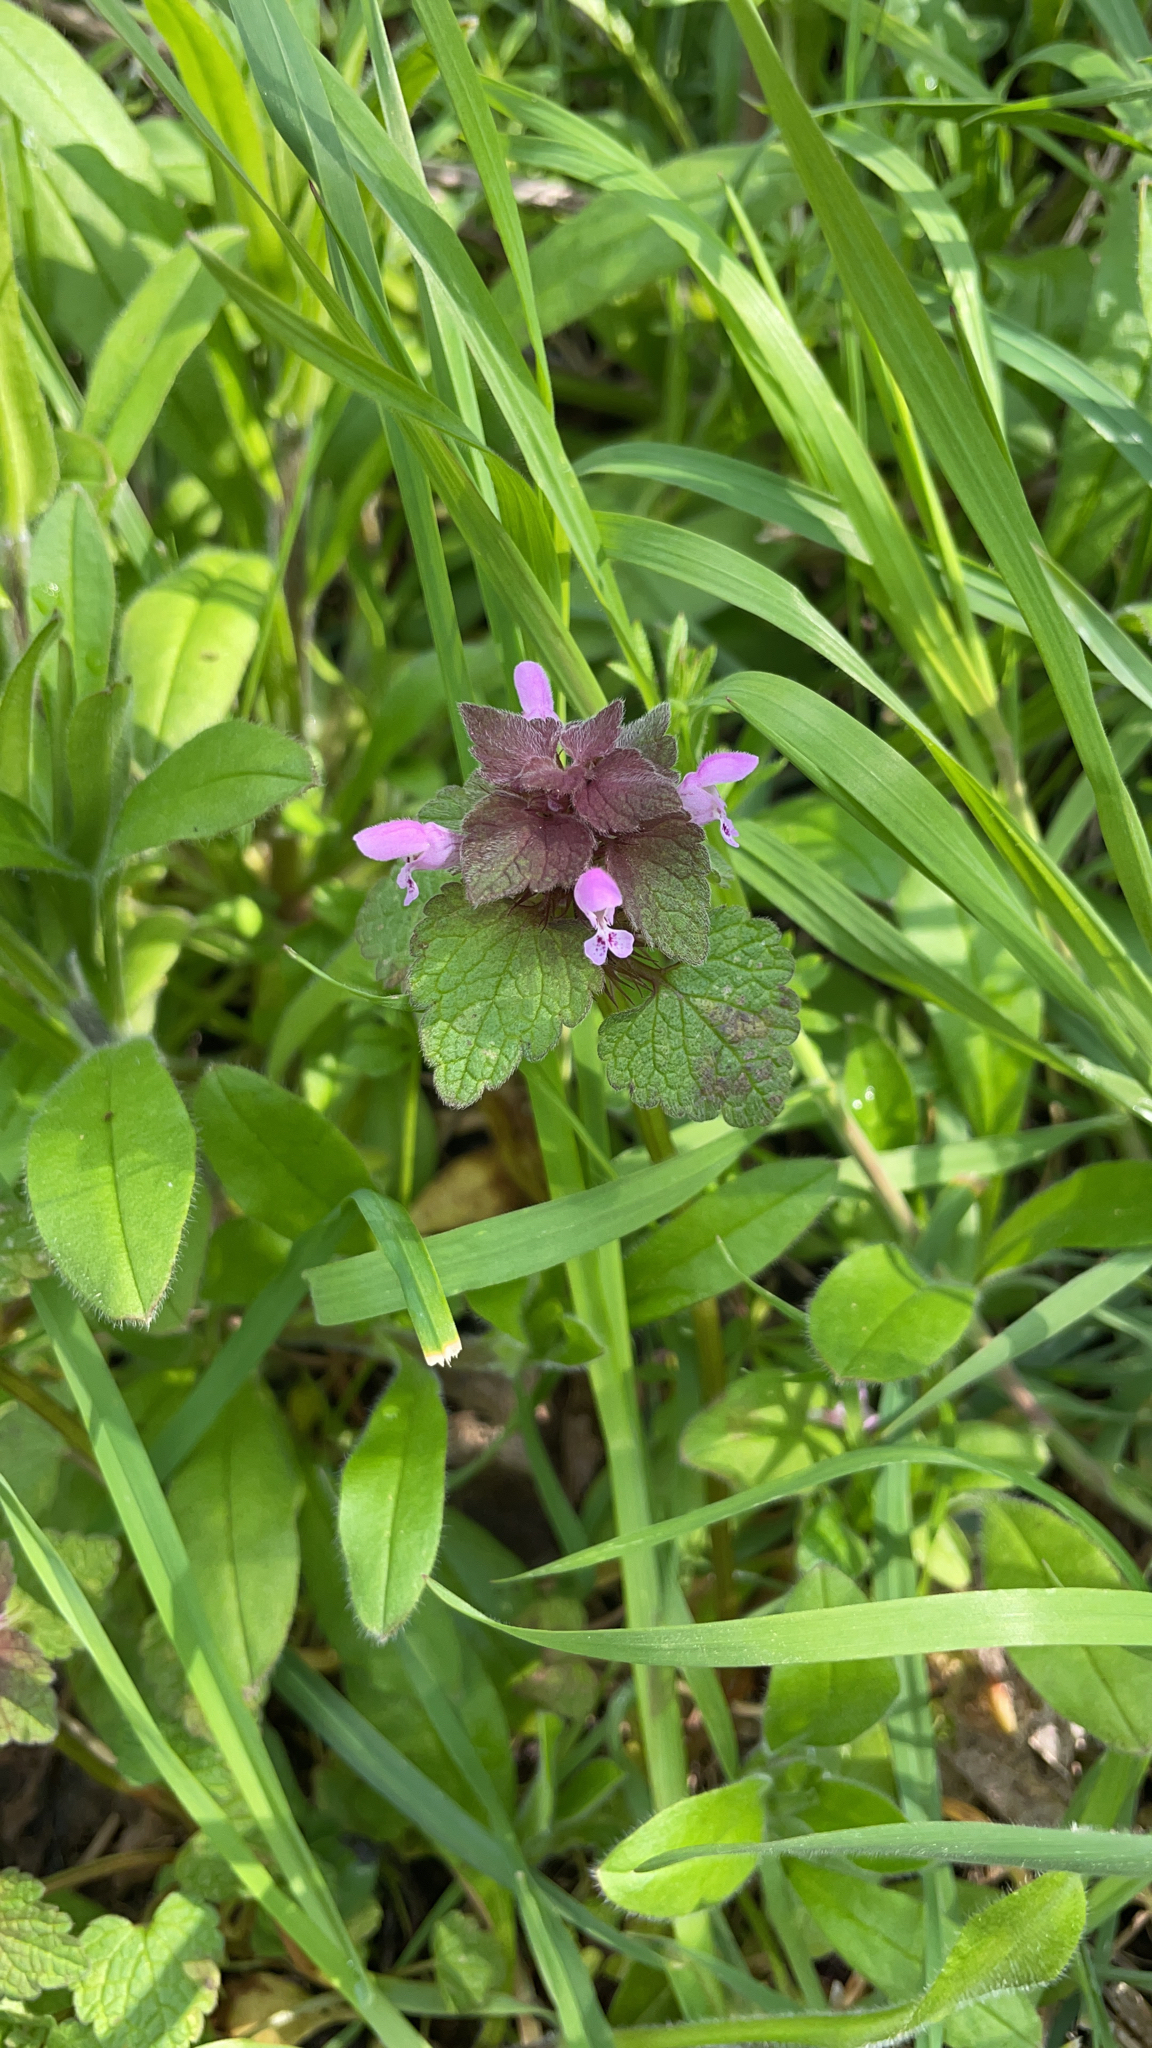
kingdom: Plantae
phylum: Tracheophyta
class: Magnoliopsida
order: Lamiales
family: Lamiaceae
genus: Lamium
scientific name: Lamium purpureum
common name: Red dead-nettle
